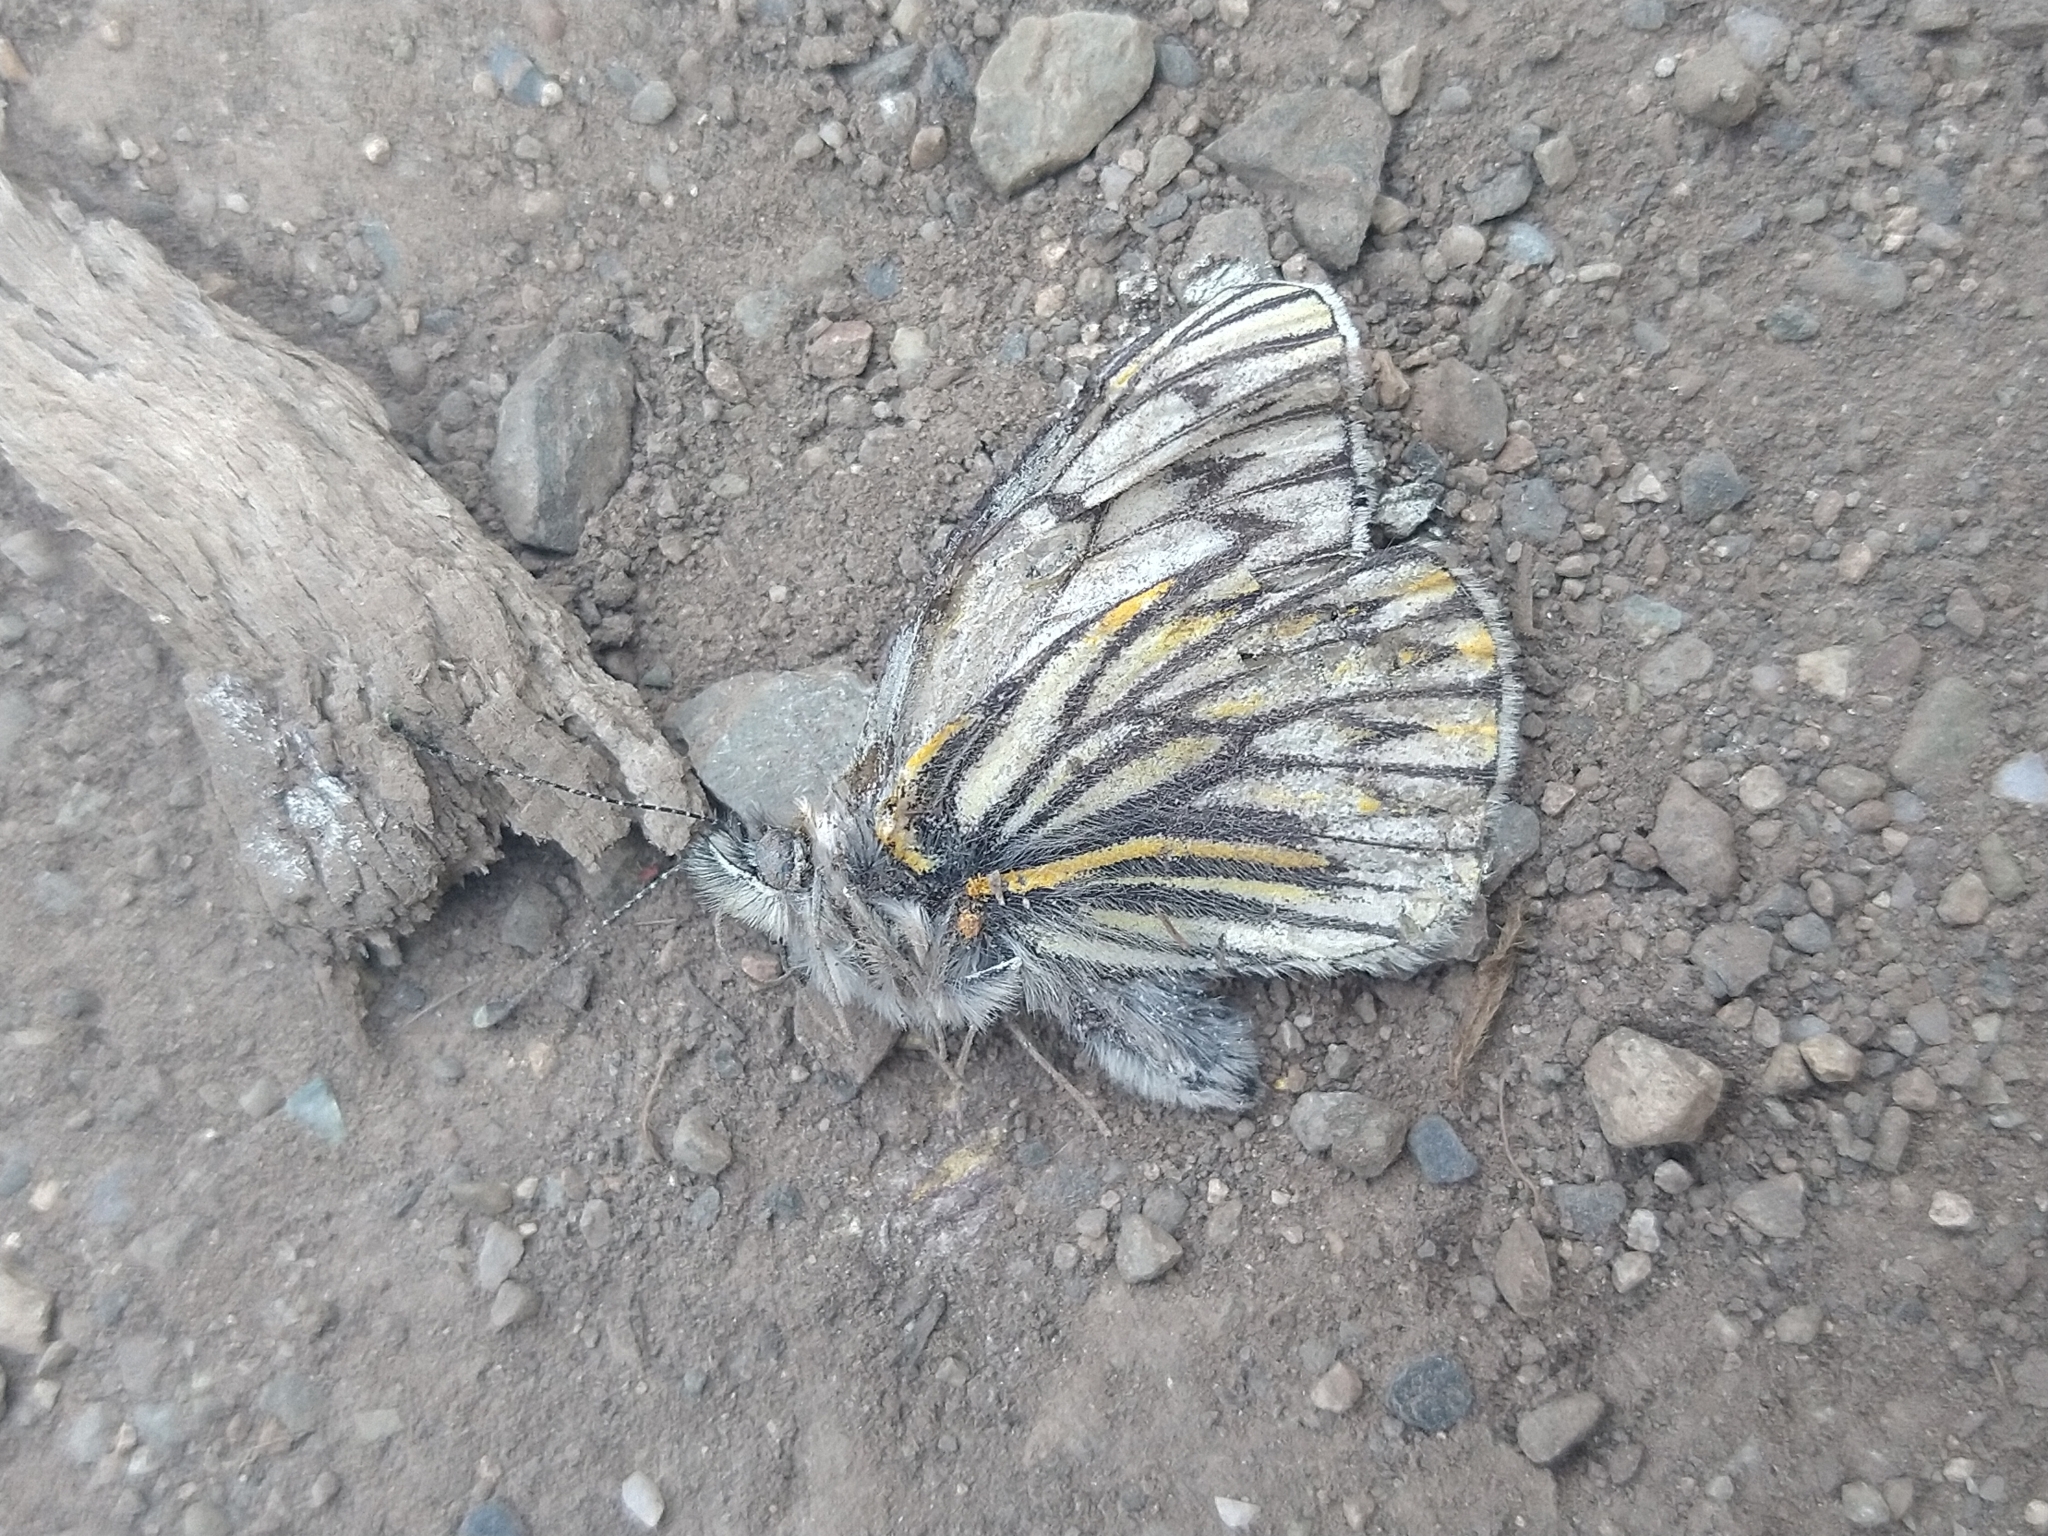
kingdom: Animalia
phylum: Arthropoda
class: Insecta
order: Lepidoptera
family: Pieridae
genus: Tatochila
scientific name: Tatochila theodice
